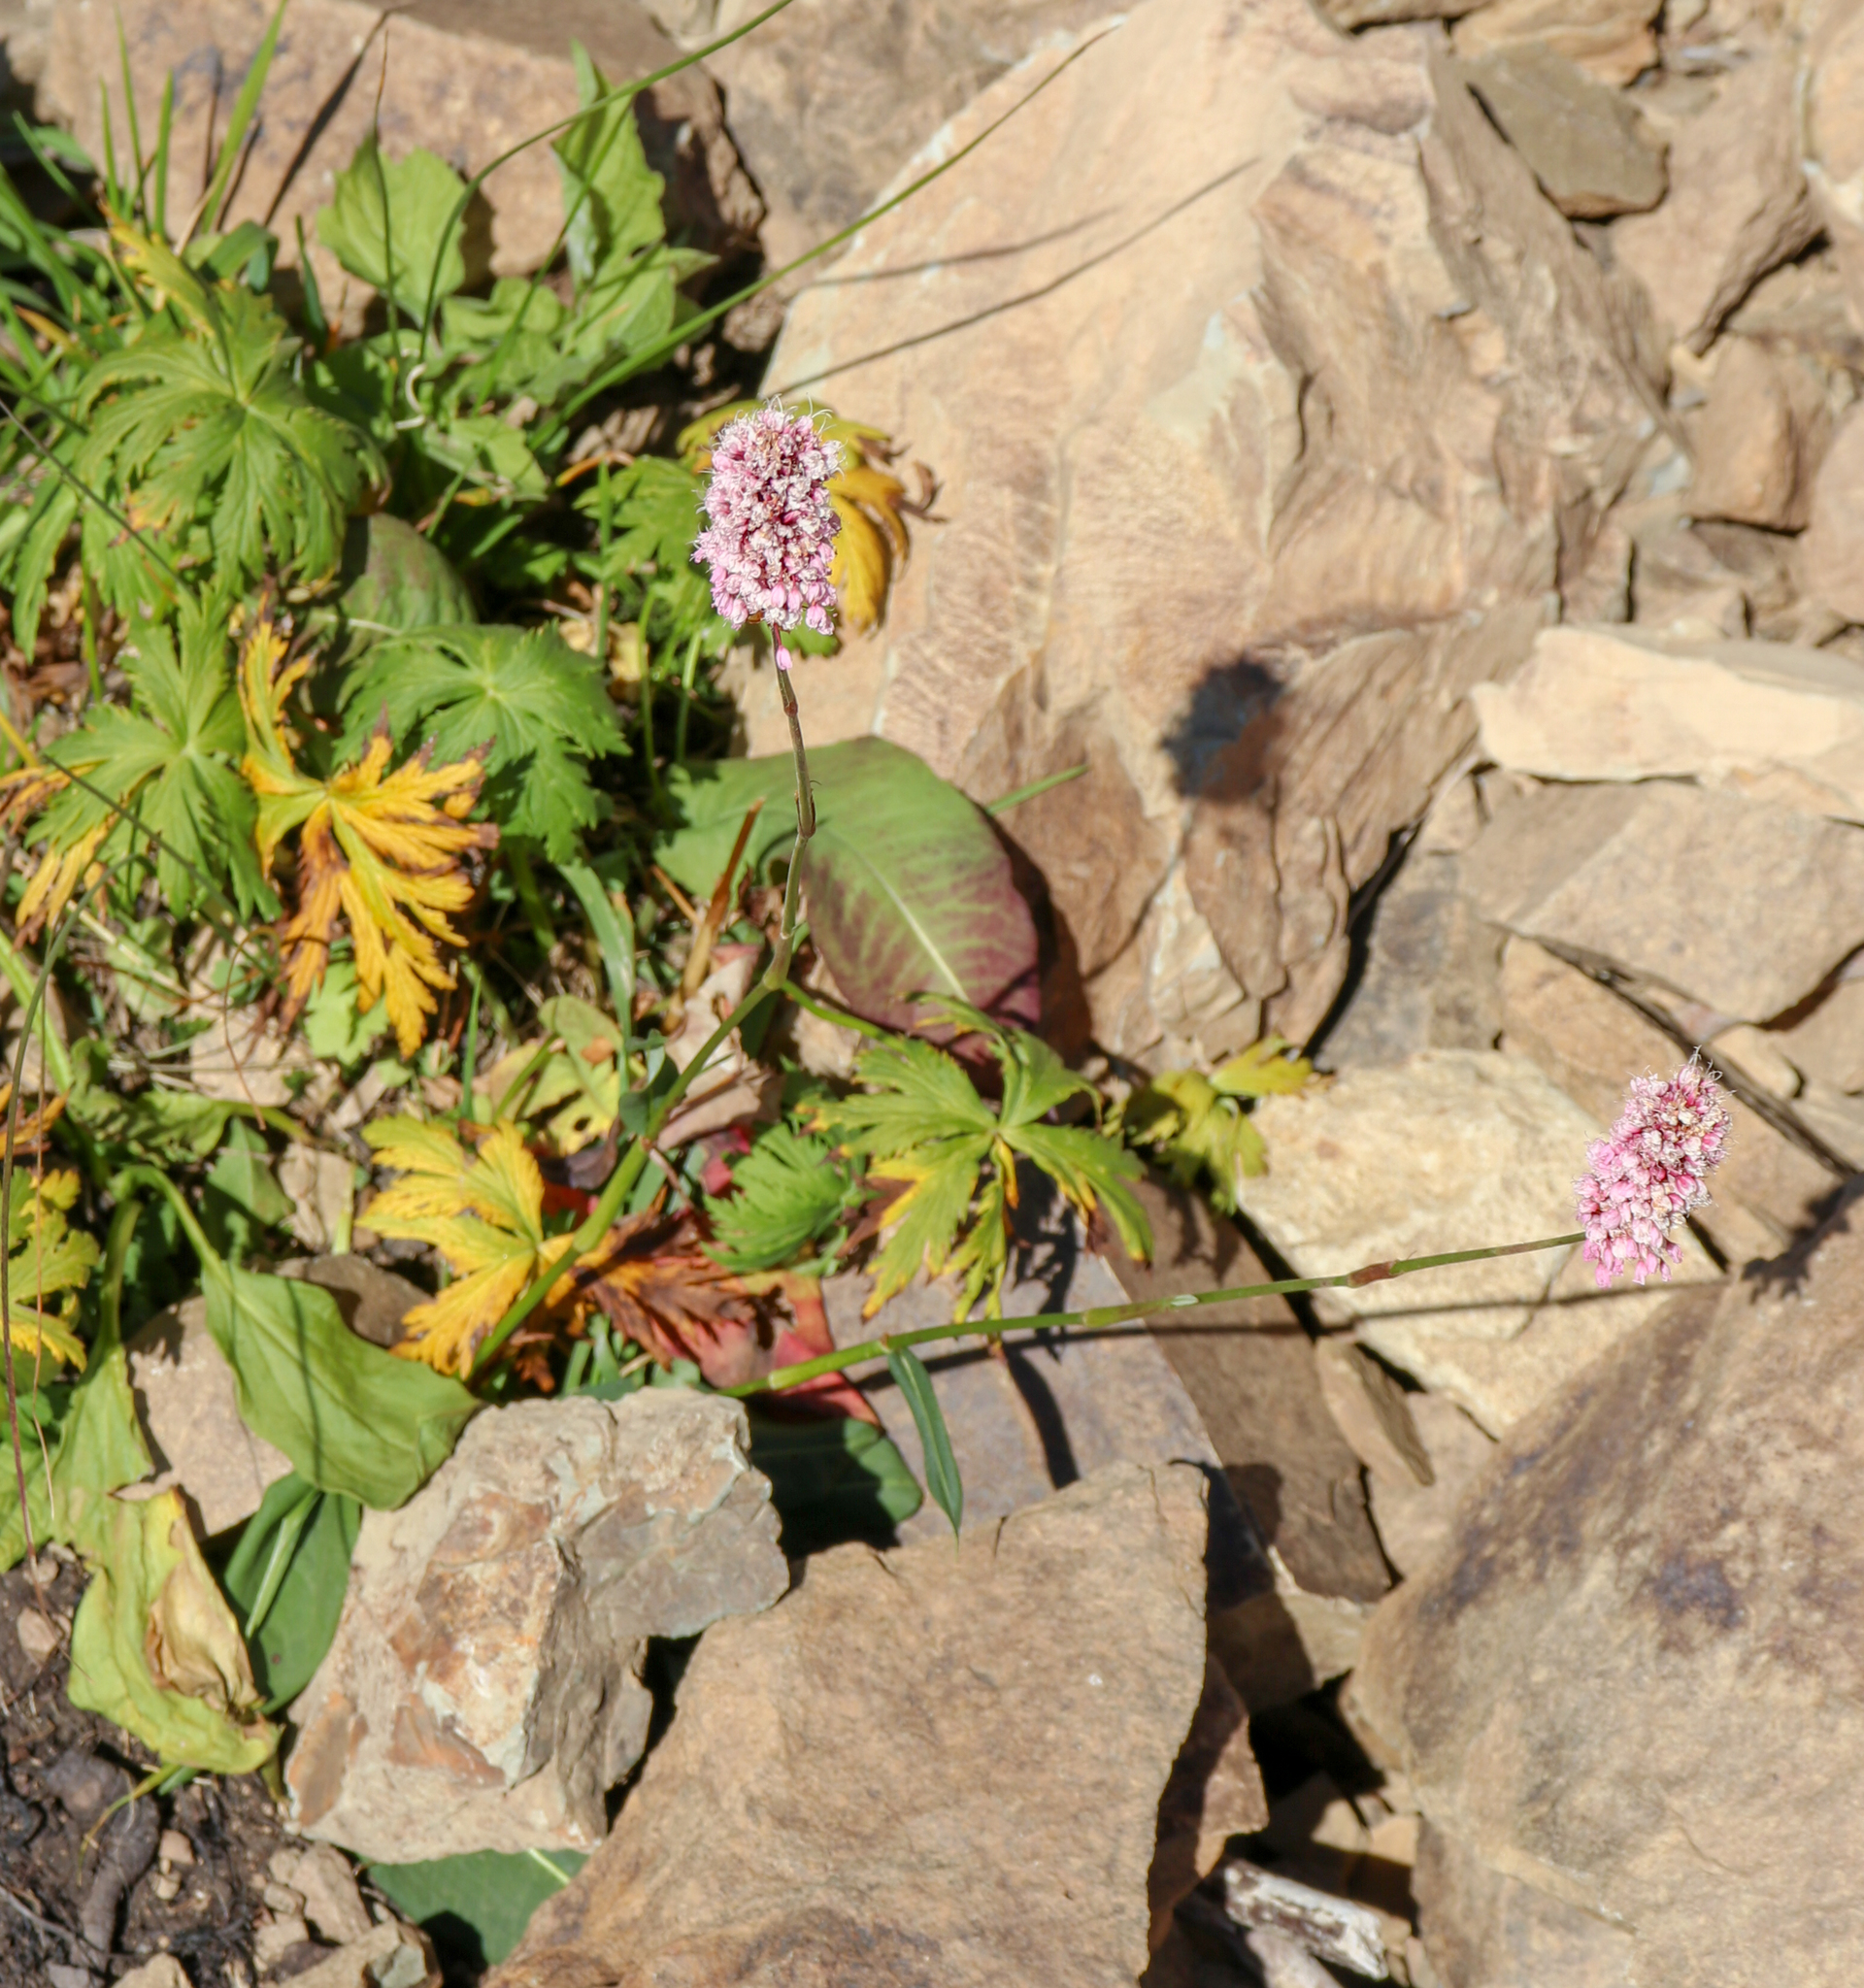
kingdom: Plantae
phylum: Tracheophyta
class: Magnoliopsida
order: Caryophyllales
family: Polygonaceae
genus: Bistorta
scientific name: Bistorta carnea
